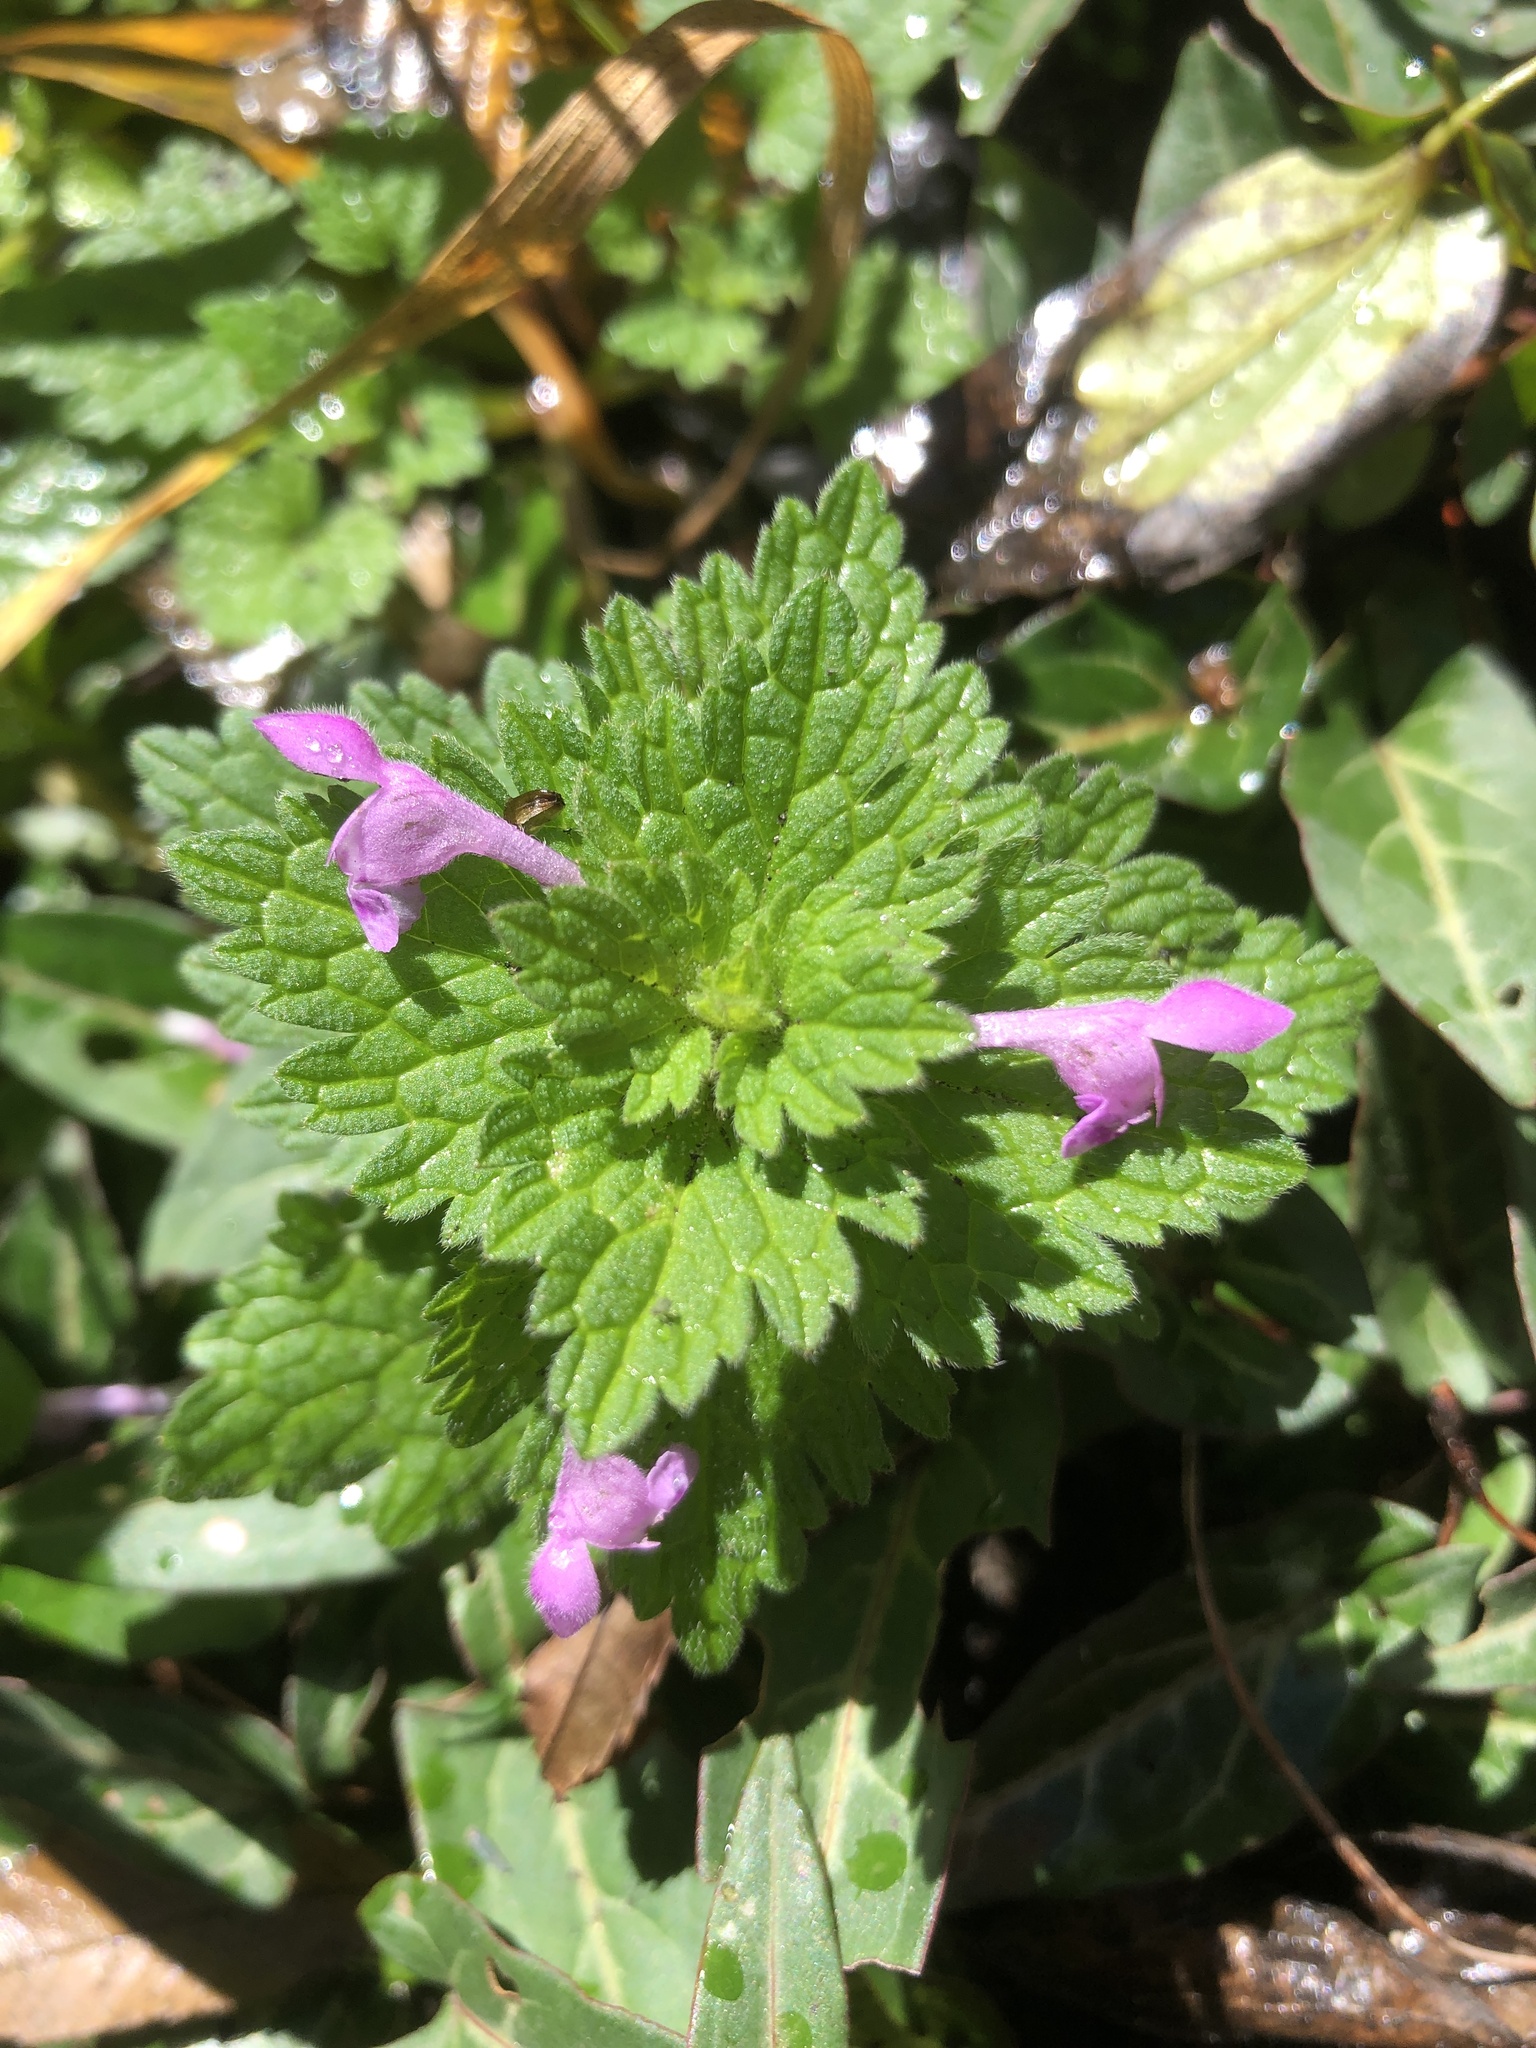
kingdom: Plantae
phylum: Tracheophyta
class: Magnoliopsida
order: Lamiales
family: Lamiaceae
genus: Lamium
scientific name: Lamium hybridum
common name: Cut-leaved dead-nettle
